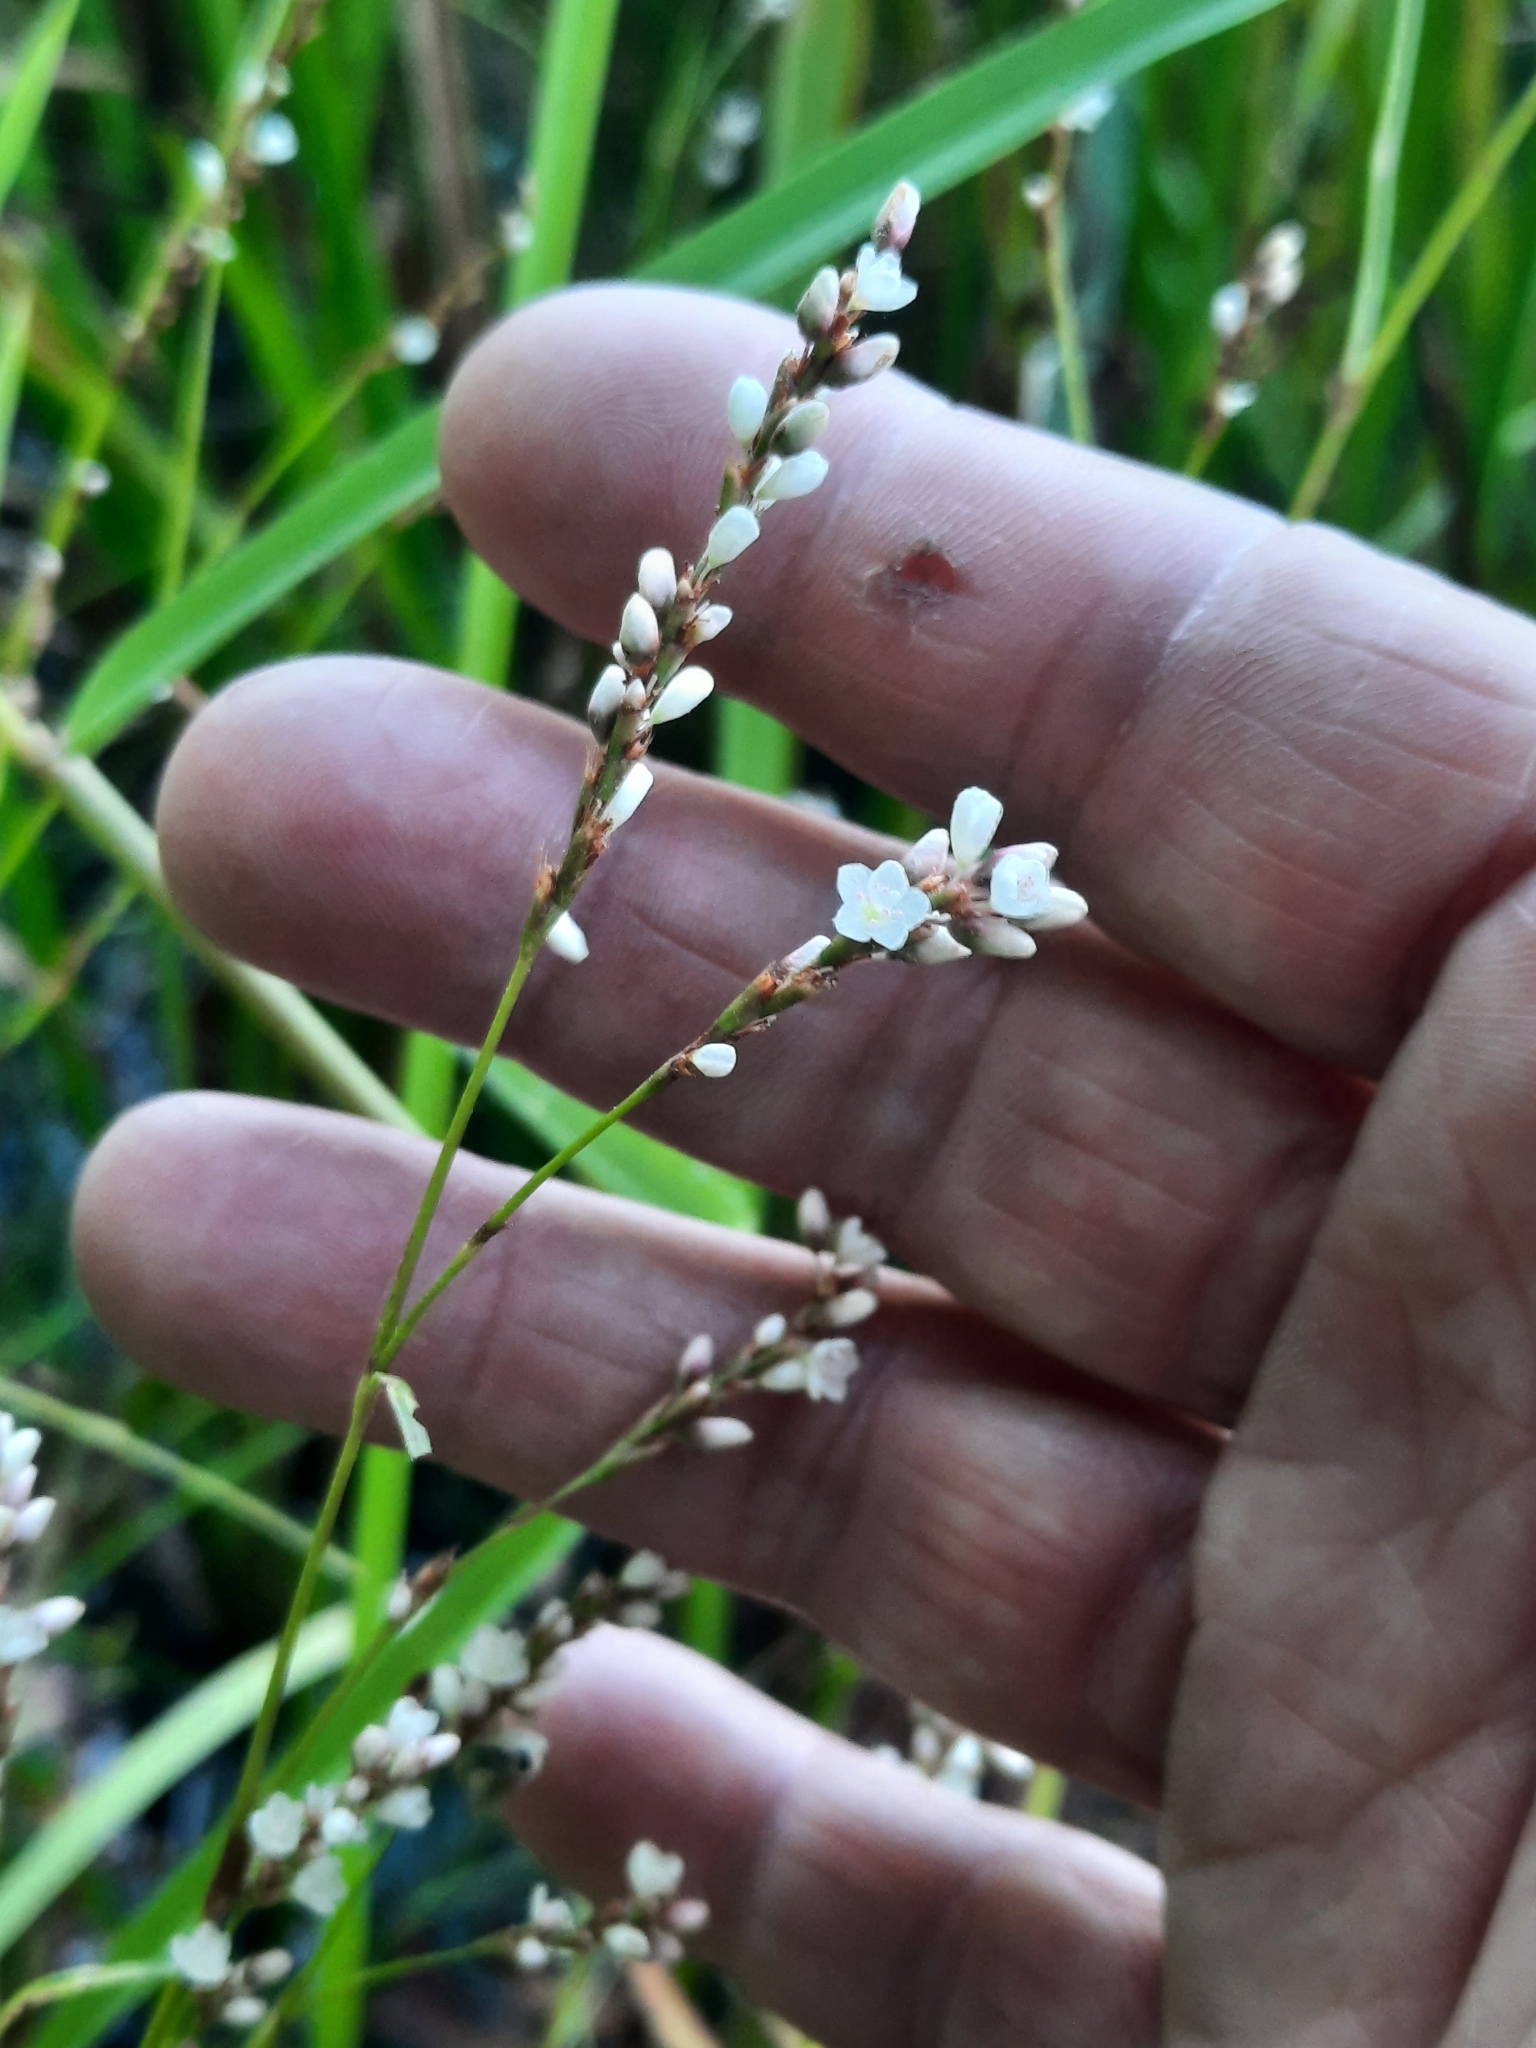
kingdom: Plantae
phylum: Tracheophyta
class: Magnoliopsida
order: Caryophyllales
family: Polygonaceae
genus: Persicaria
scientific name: Persicaria hydropiperoides
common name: Swamp smartweed
